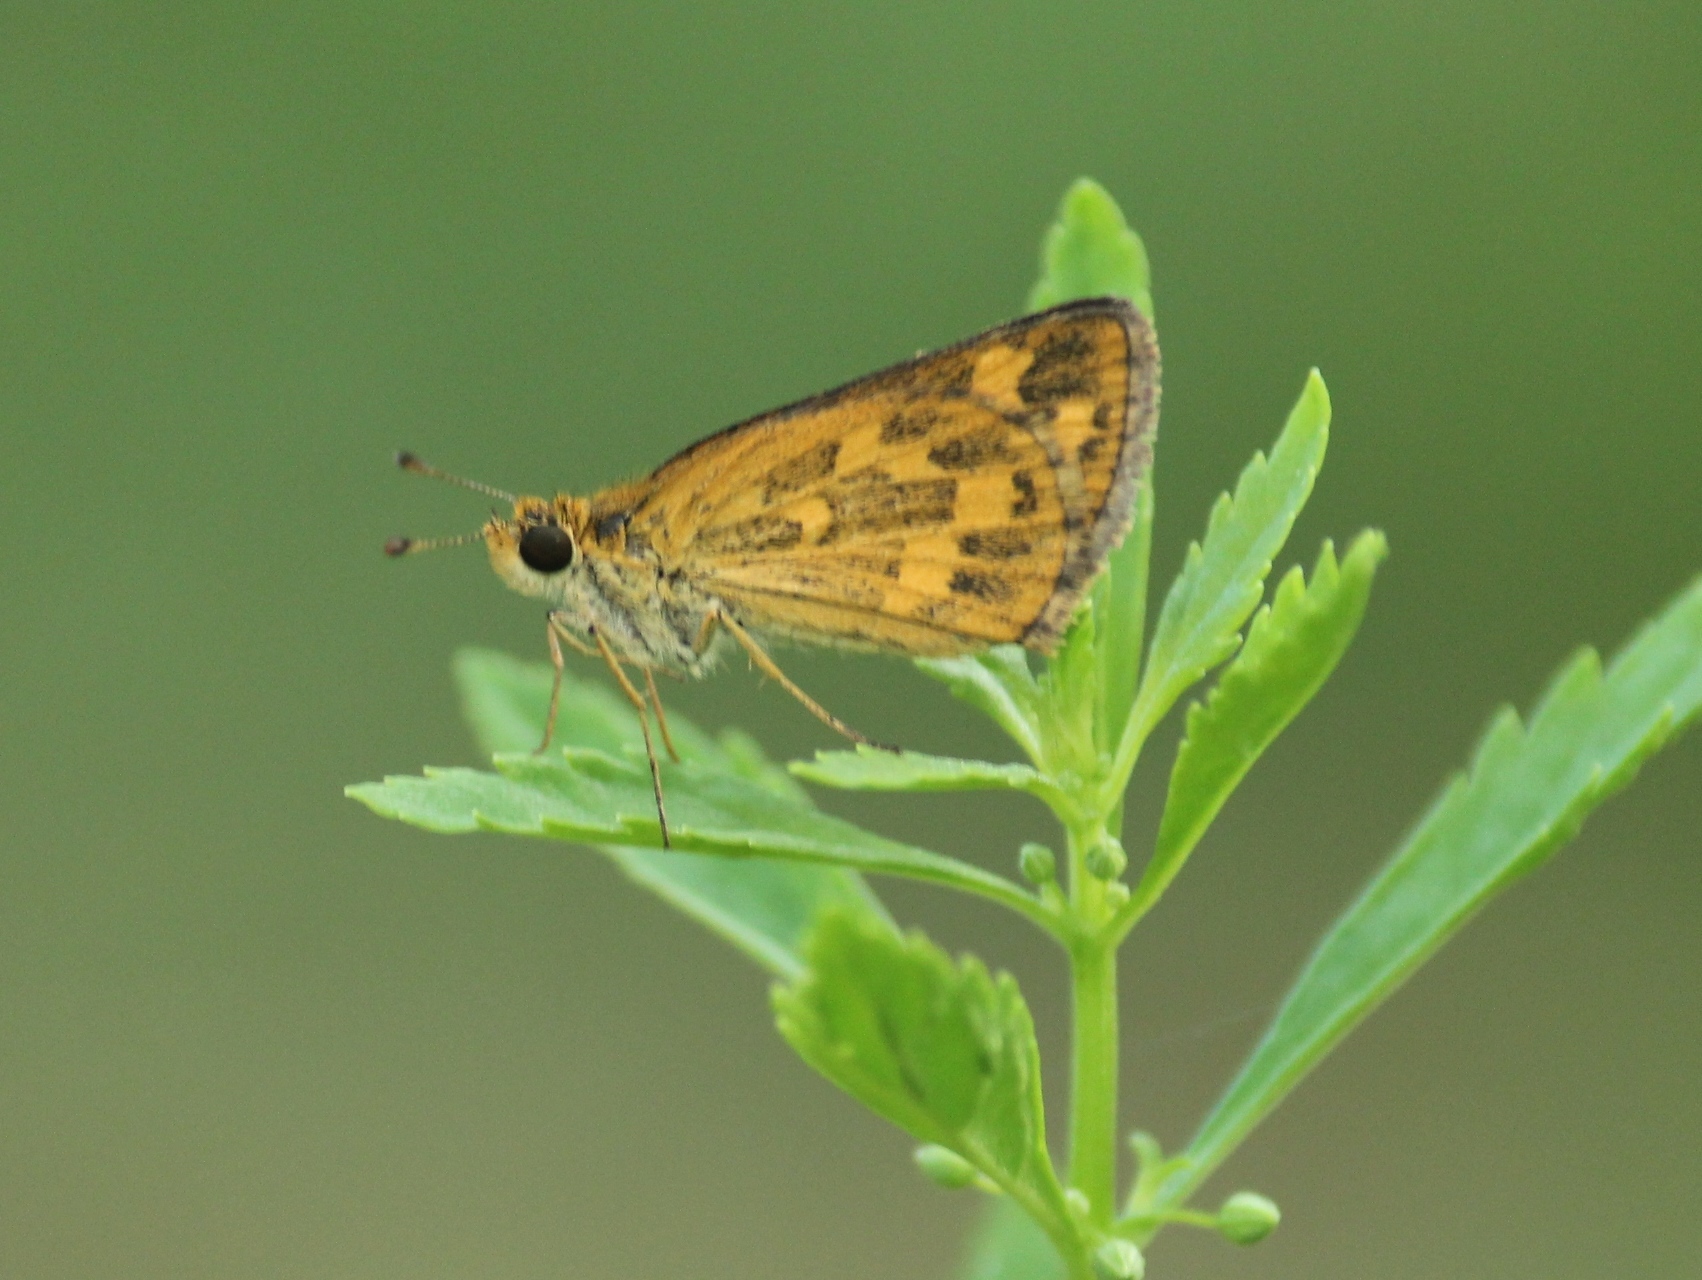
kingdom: Animalia
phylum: Arthropoda
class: Insecta
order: Lepidoptera
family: Hesperiidae
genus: Taractrocera
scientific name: Taractrocera ceramas
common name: Tamil grass dart
